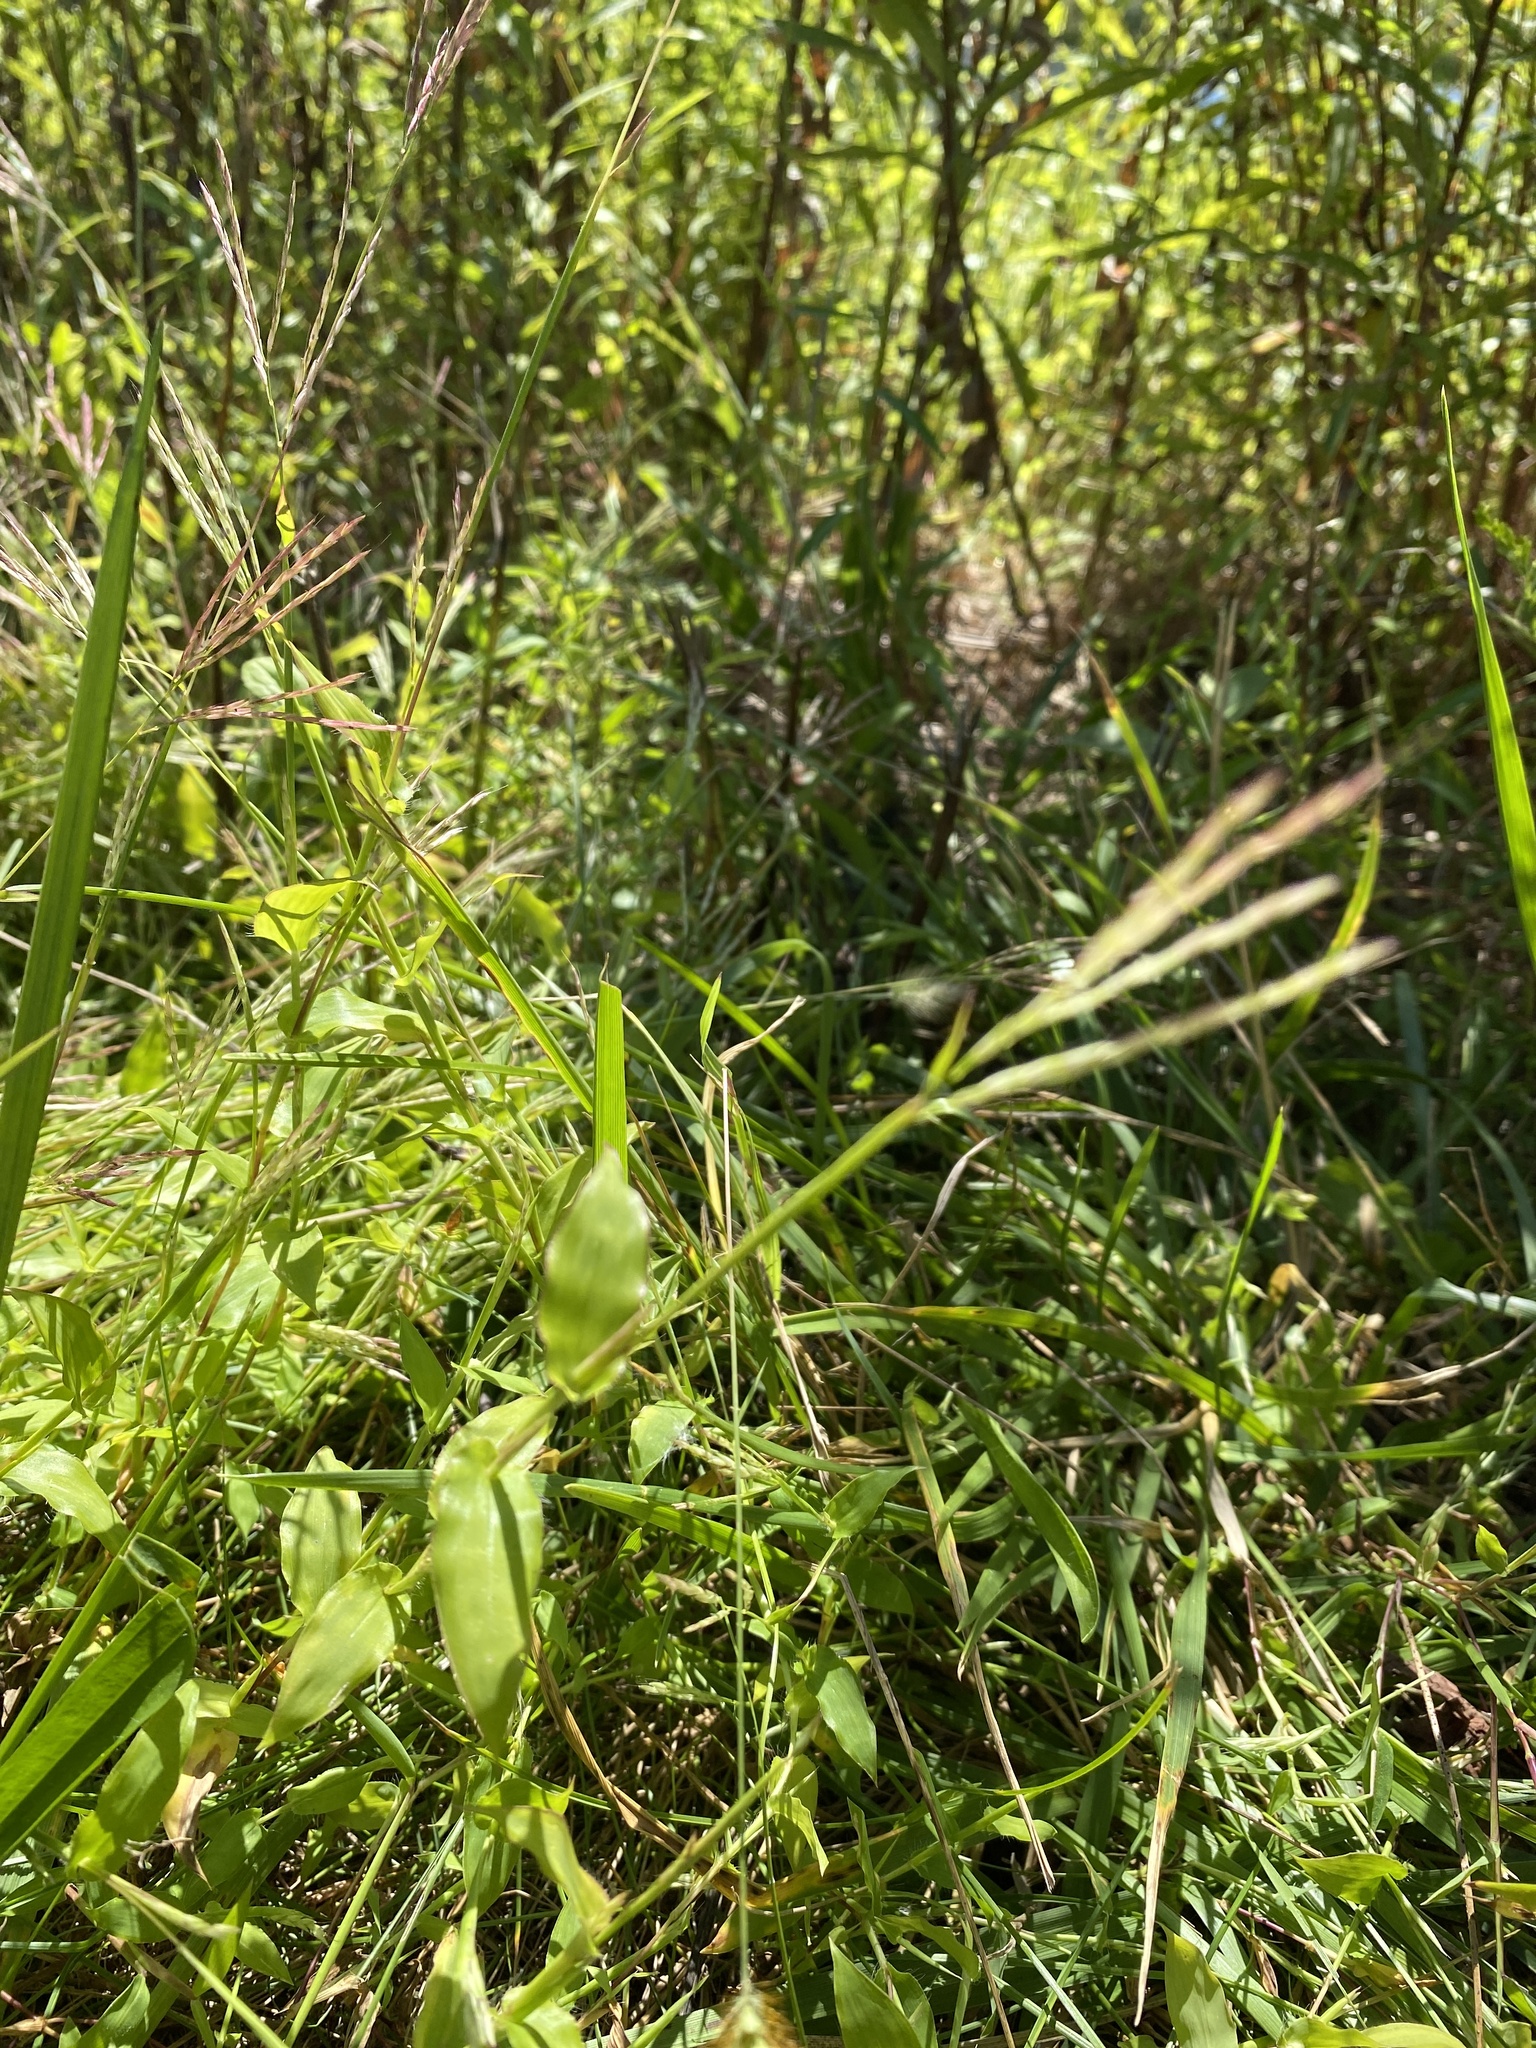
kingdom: Plantae
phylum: Tracheophyta
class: Liliopsida
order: Poales
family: Poaceae
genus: Arthraxon
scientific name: Arthraxon hispidus
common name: Small carpgrass
